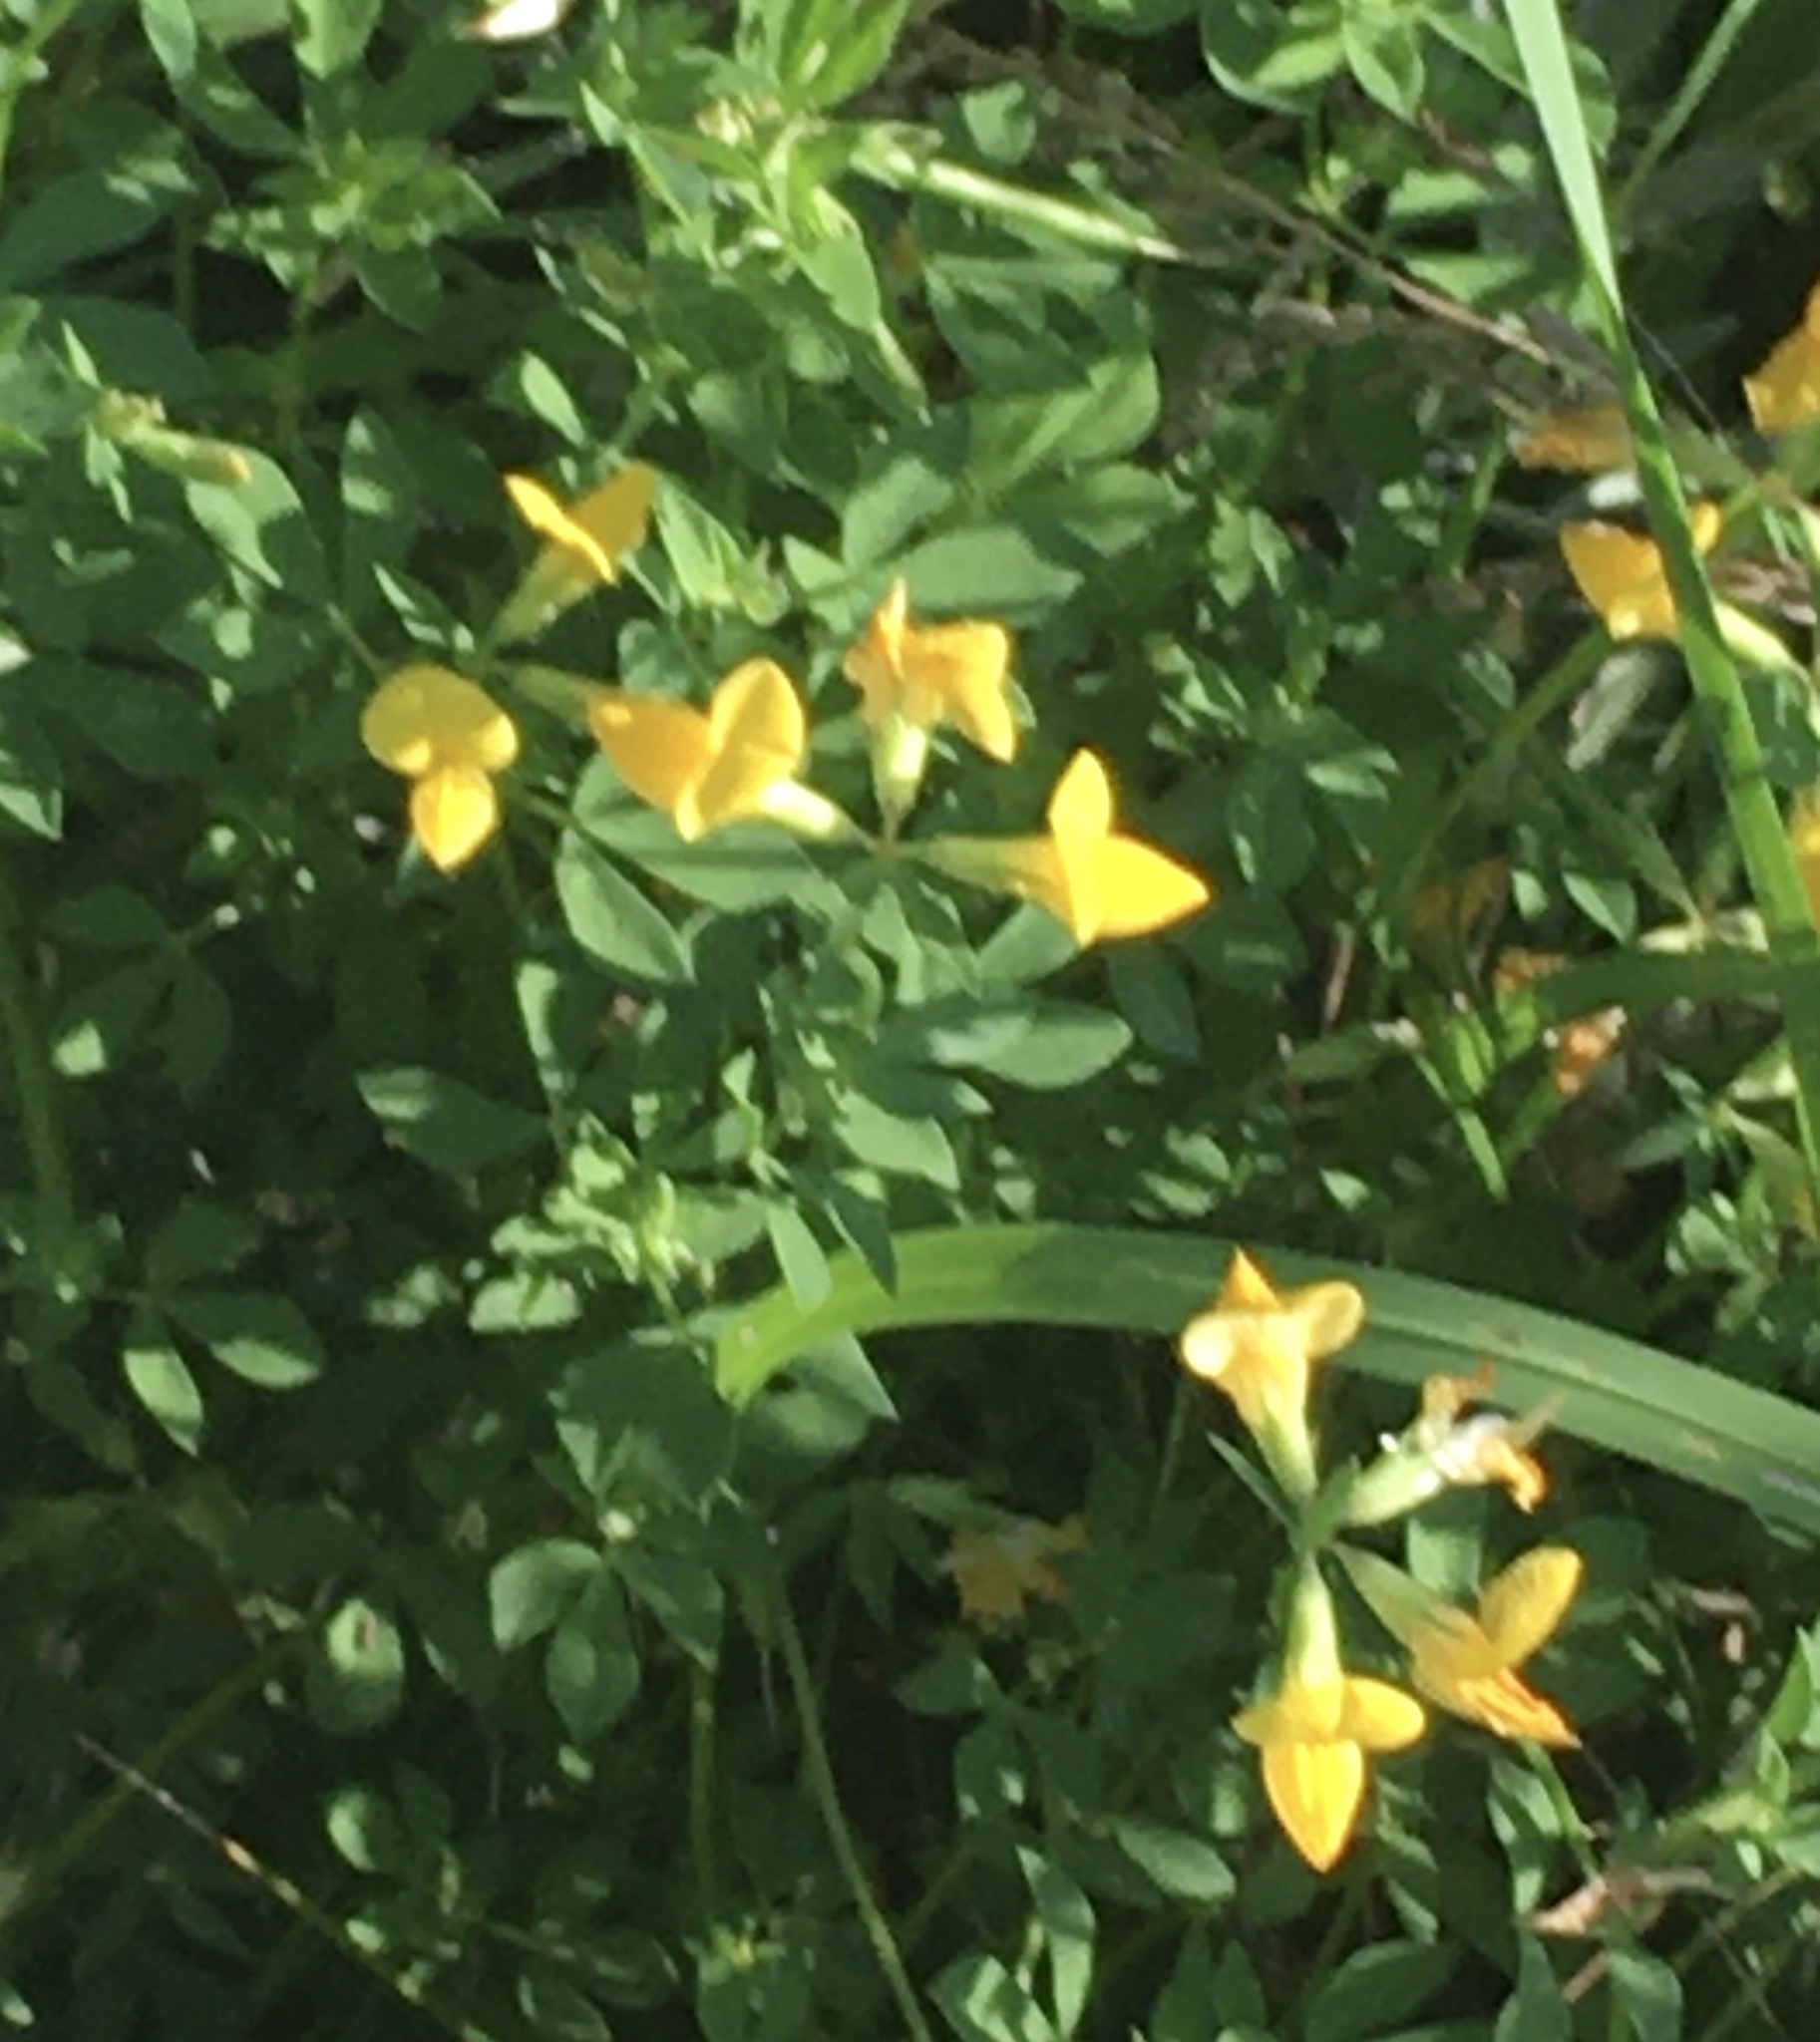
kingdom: Plantae
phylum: Tracheophyta
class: Magnoliopsida
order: Fabales
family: Fabaceae
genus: Lotus
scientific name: Lotus corniculatus
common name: Common bird's-foot-trefoil
